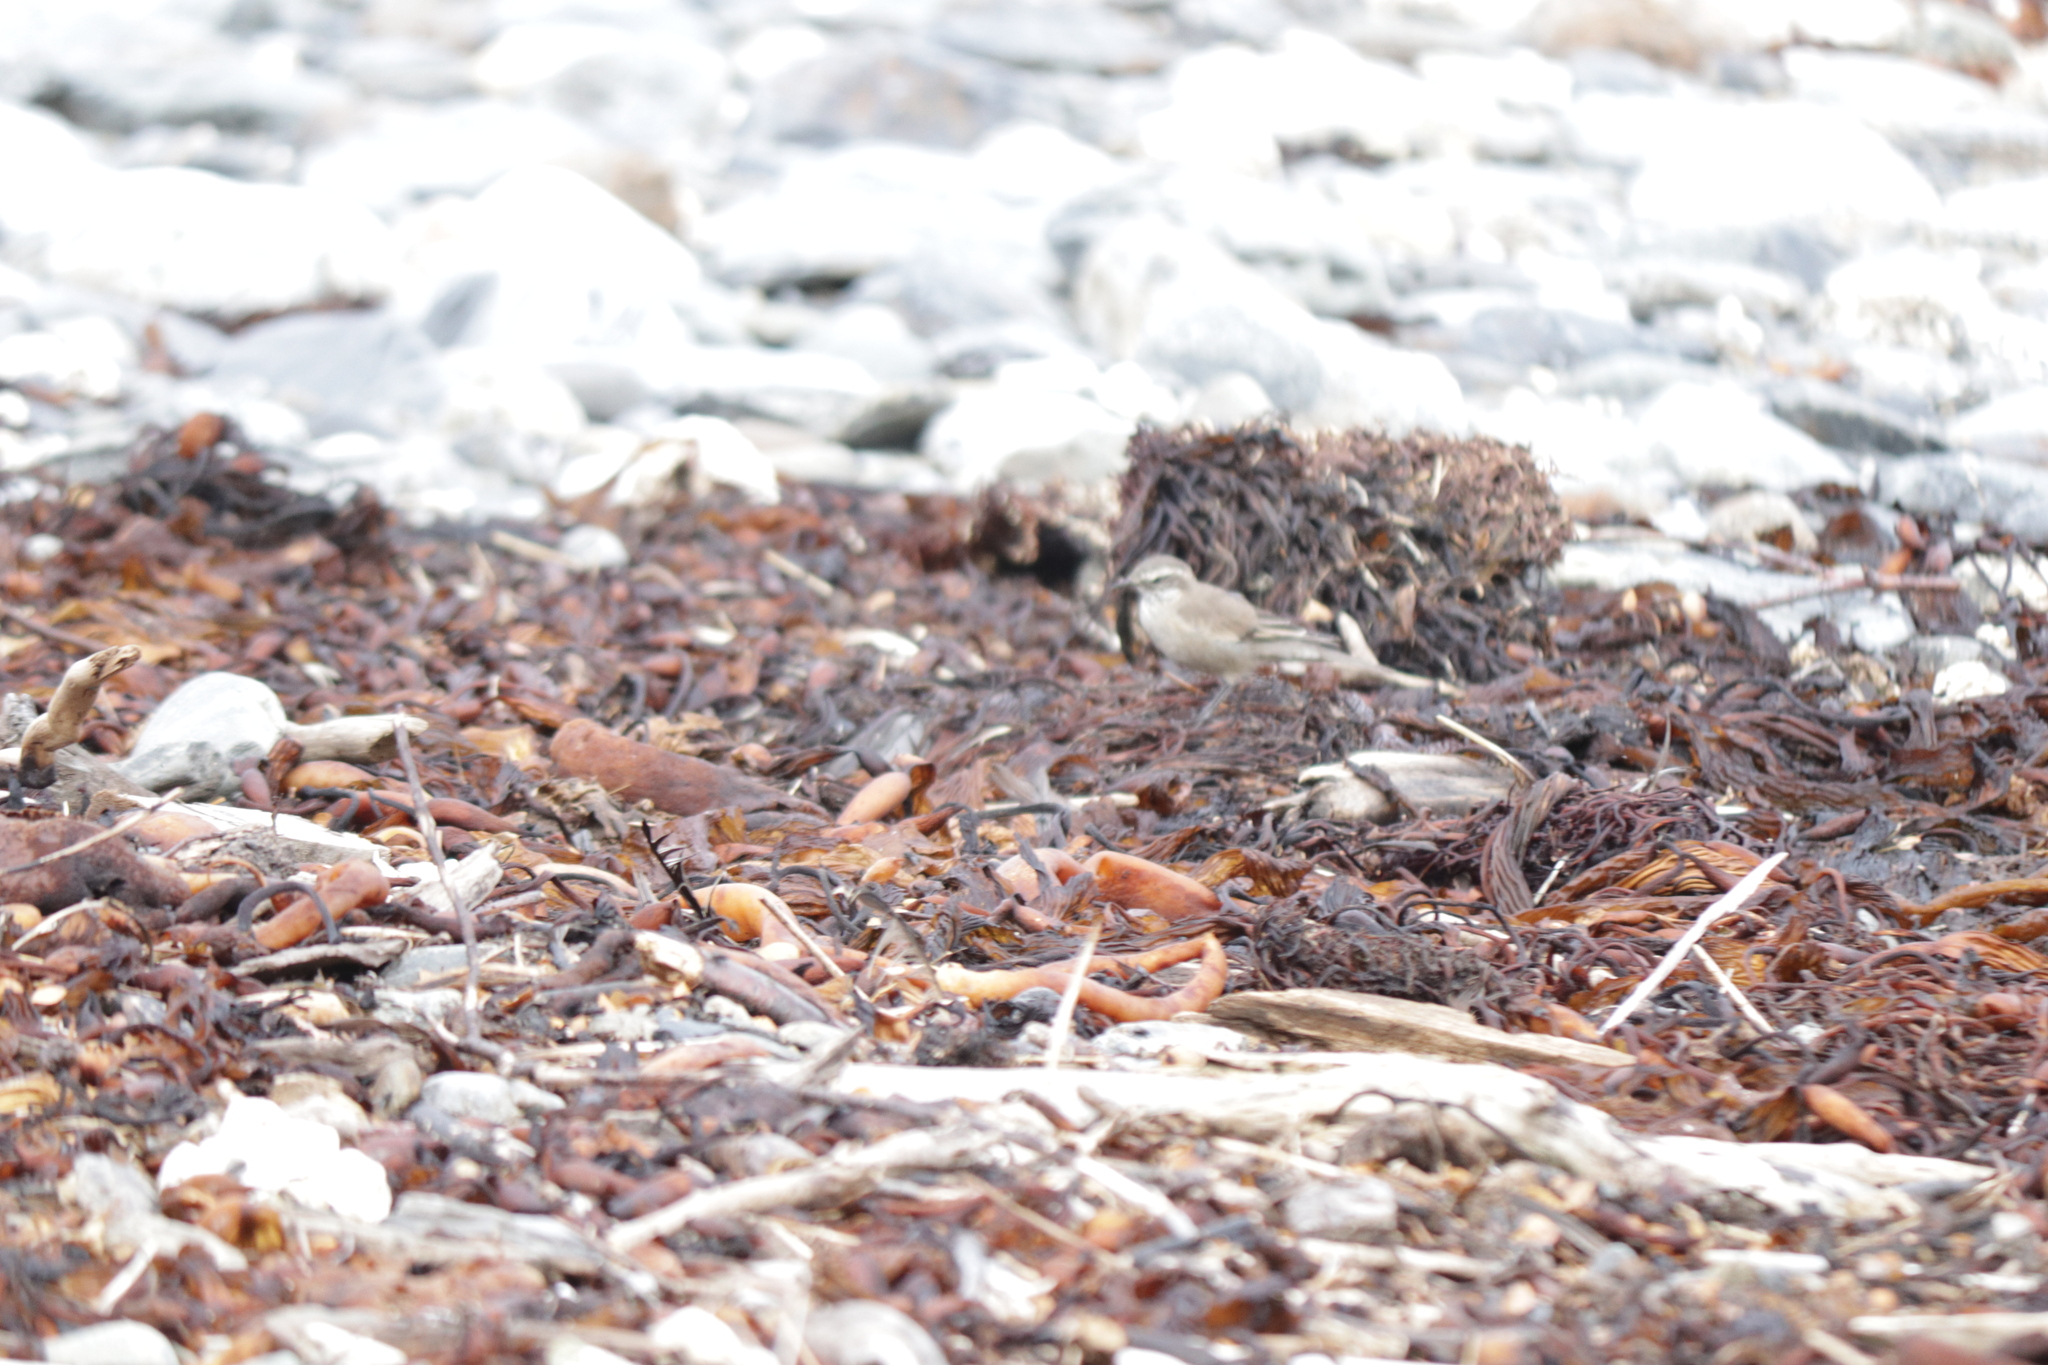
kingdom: Animalia
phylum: Chordata
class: Aves
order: Passeriformes
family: Furnariidae
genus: Cinclodes
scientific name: Cinclodes fuscus
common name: Buff-winged cinclodes
